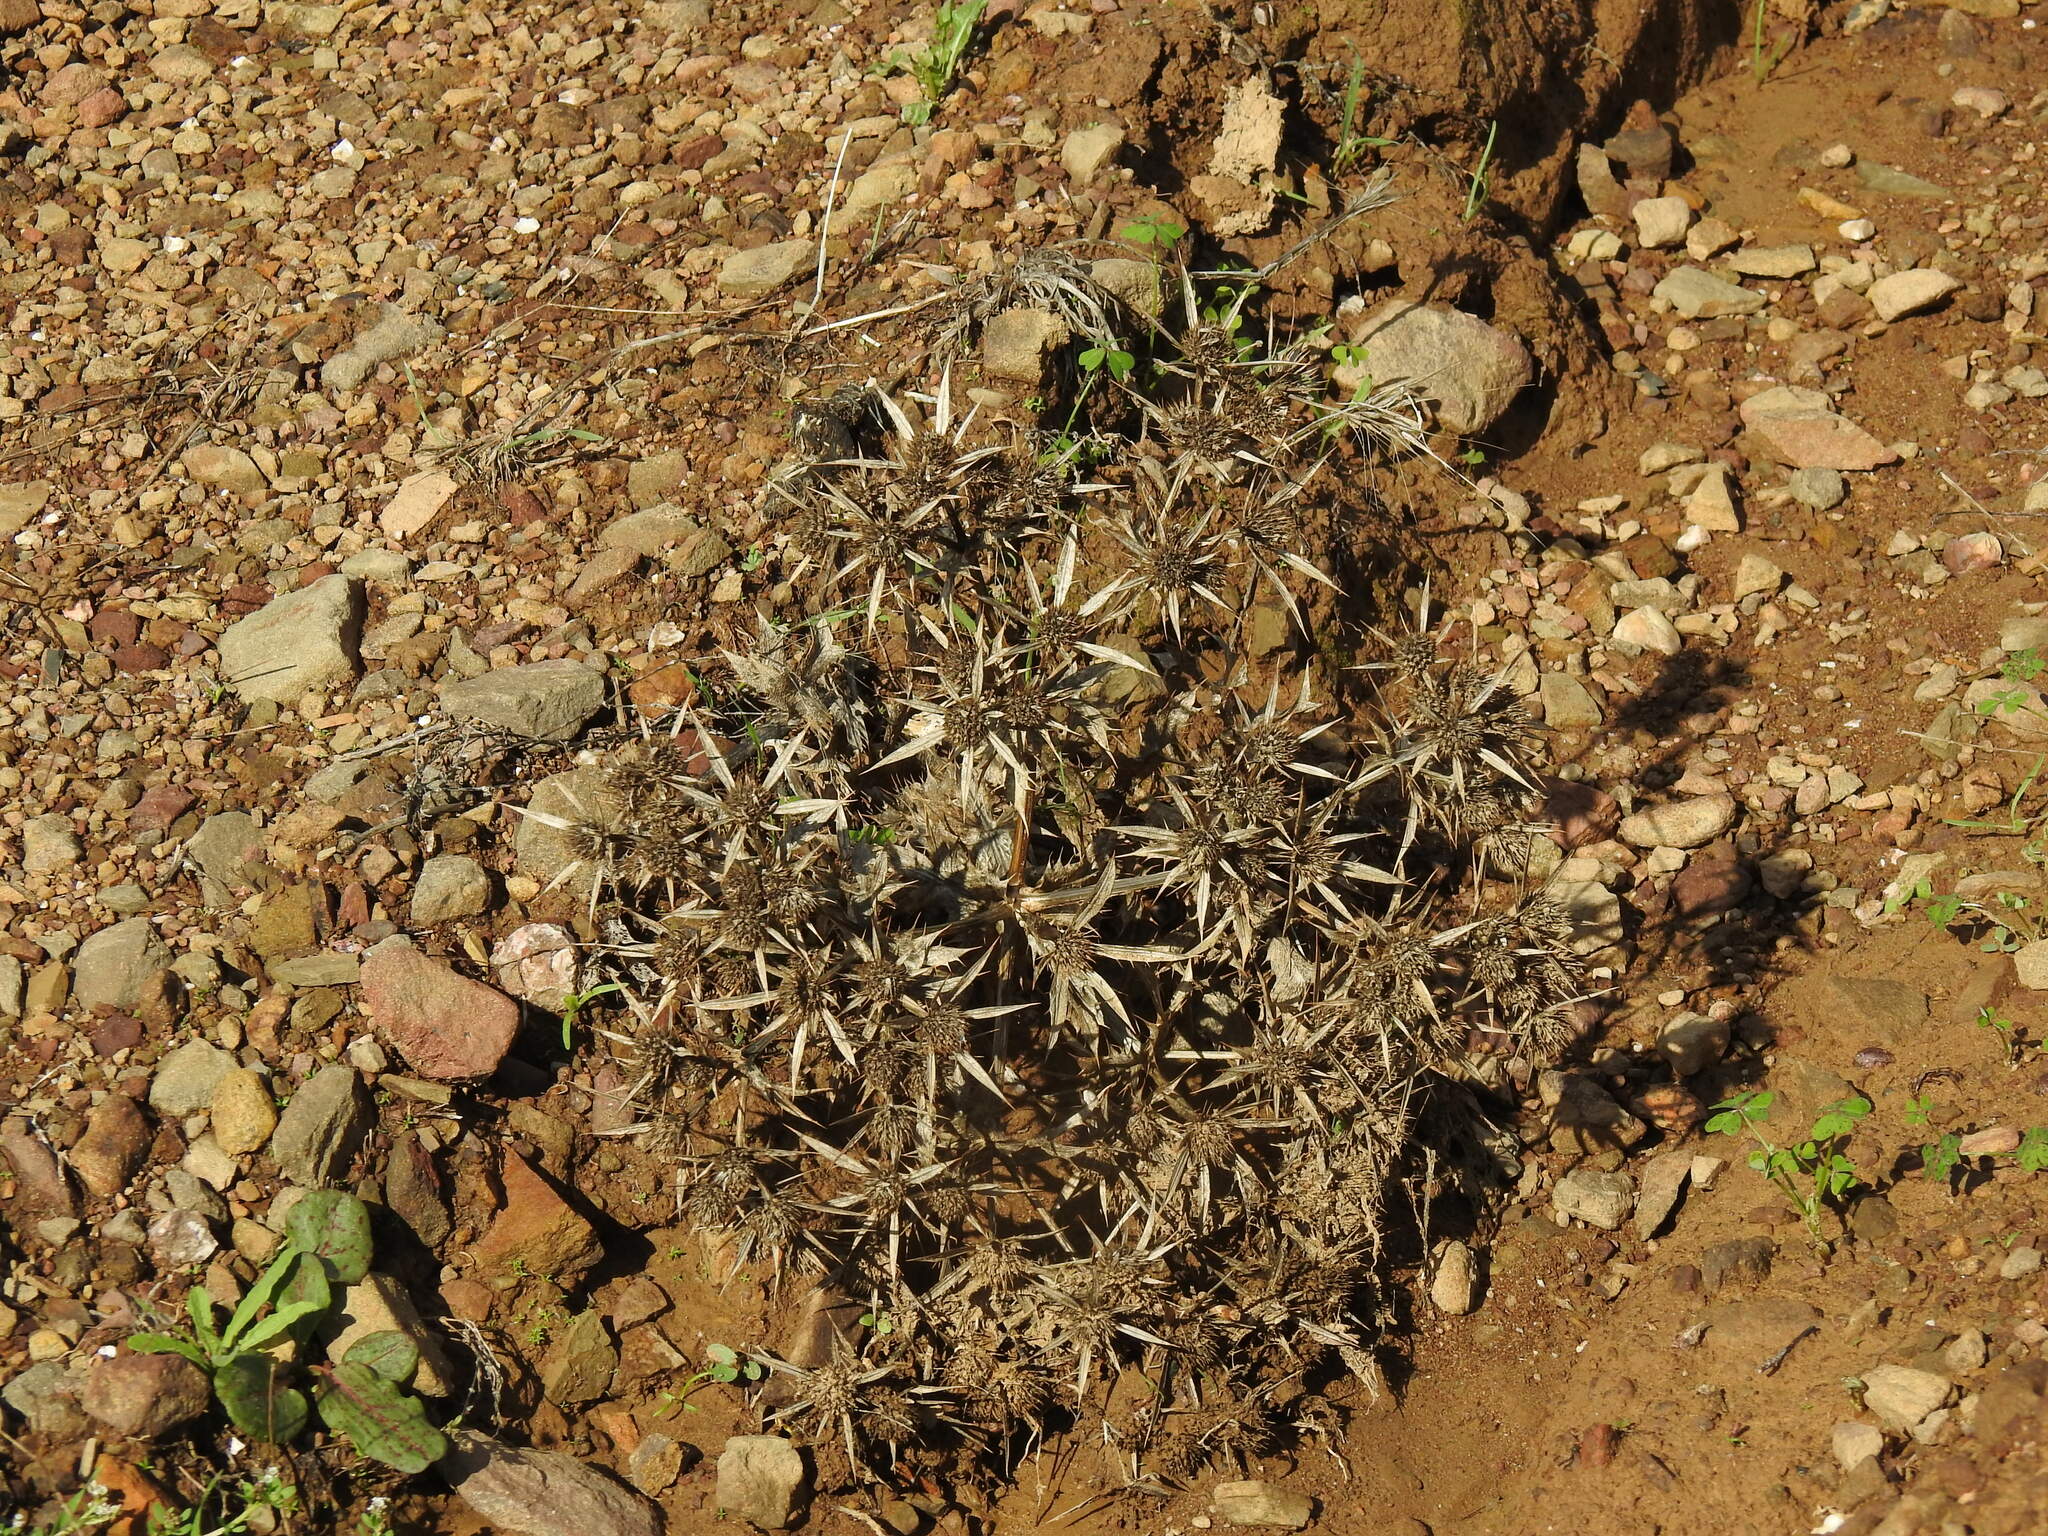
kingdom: Plantae
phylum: Tracheophyta
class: Magnoliopsida
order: Apiales
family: Apiaceae
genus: Eryngium
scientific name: Eryngium campestre
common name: Field eryngo
